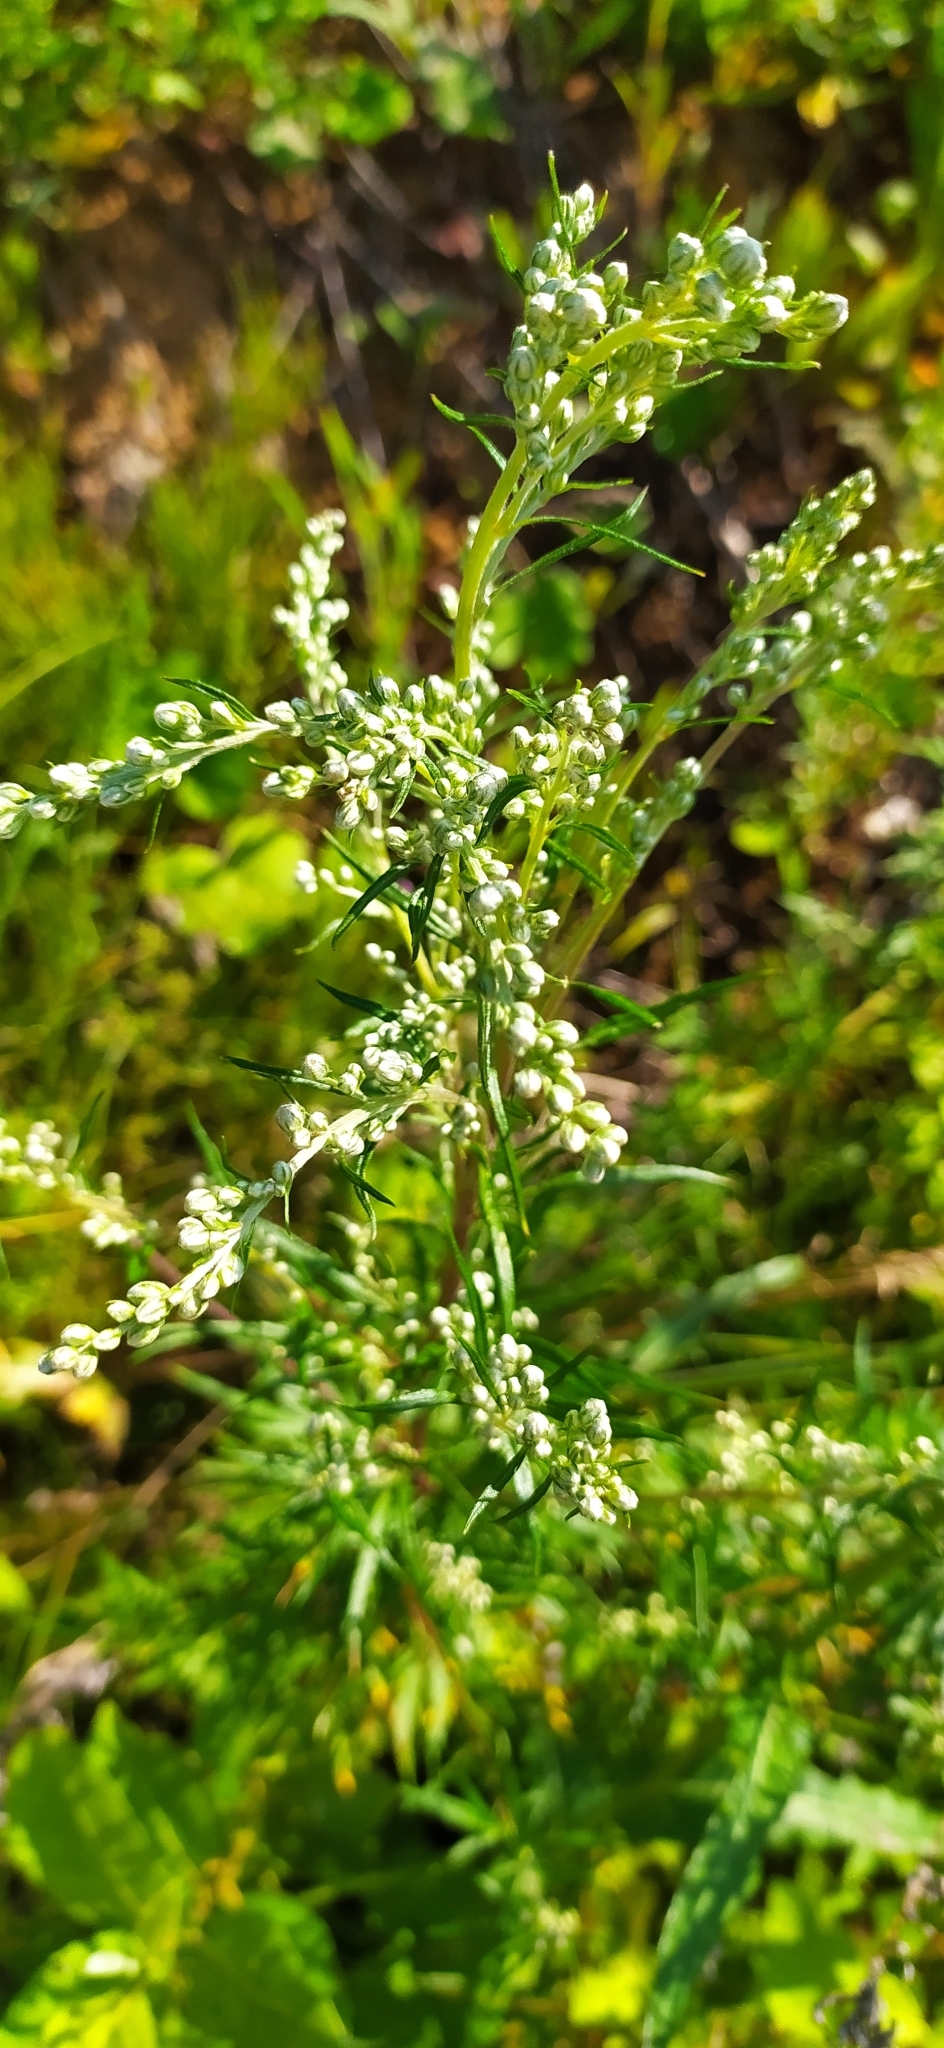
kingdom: Plantae
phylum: Tracheophyta
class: Magnoliopsida
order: Asterales
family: Asteraceae
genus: Artemisia
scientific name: Artemisia vulgaris
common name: Mugwort
